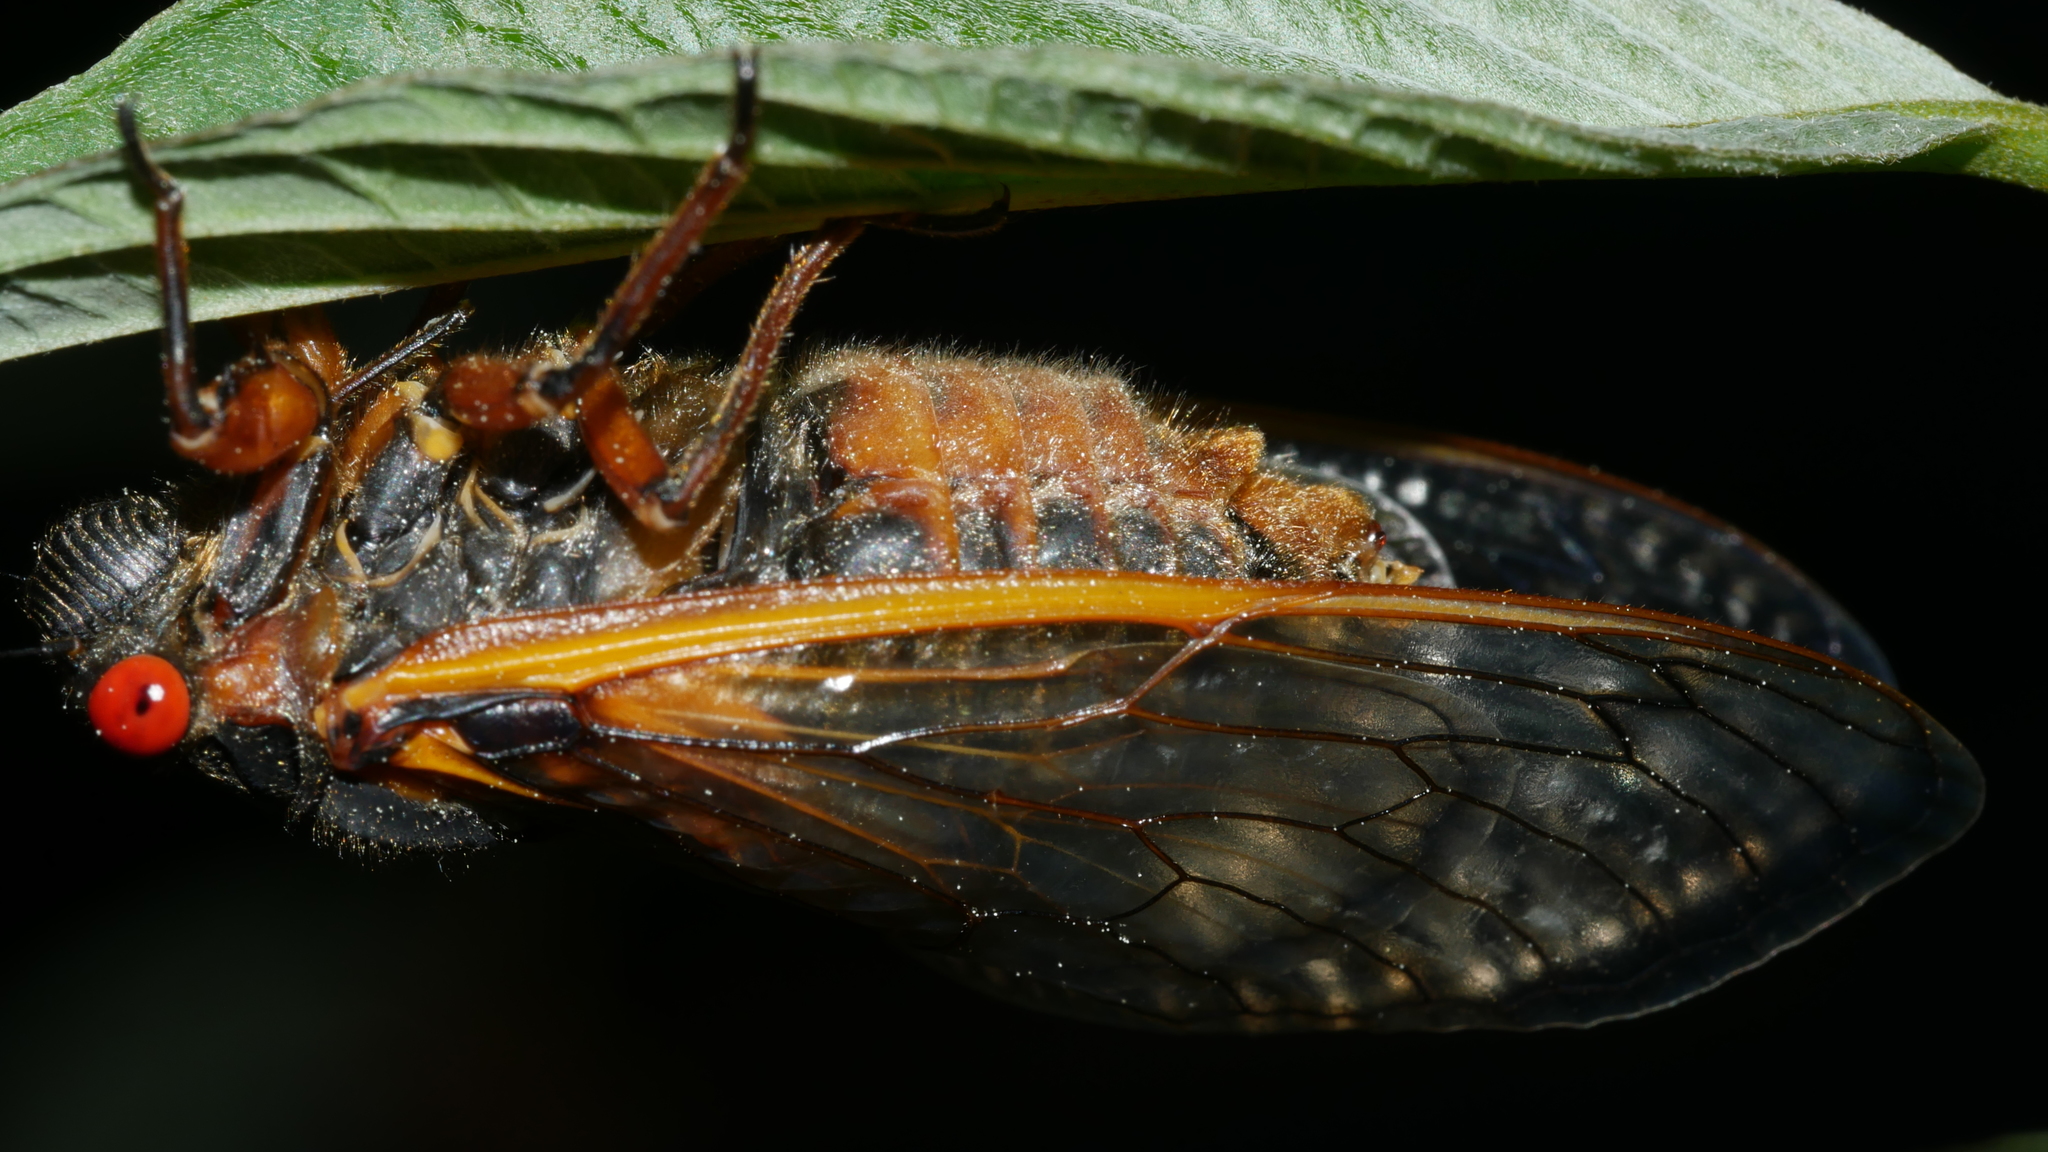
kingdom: Animalia
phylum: Arthropoda
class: Insecta
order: Hemiptera
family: Cicadidae
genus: Magicicada
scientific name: Magicicada septendecim
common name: Periodical cicada
